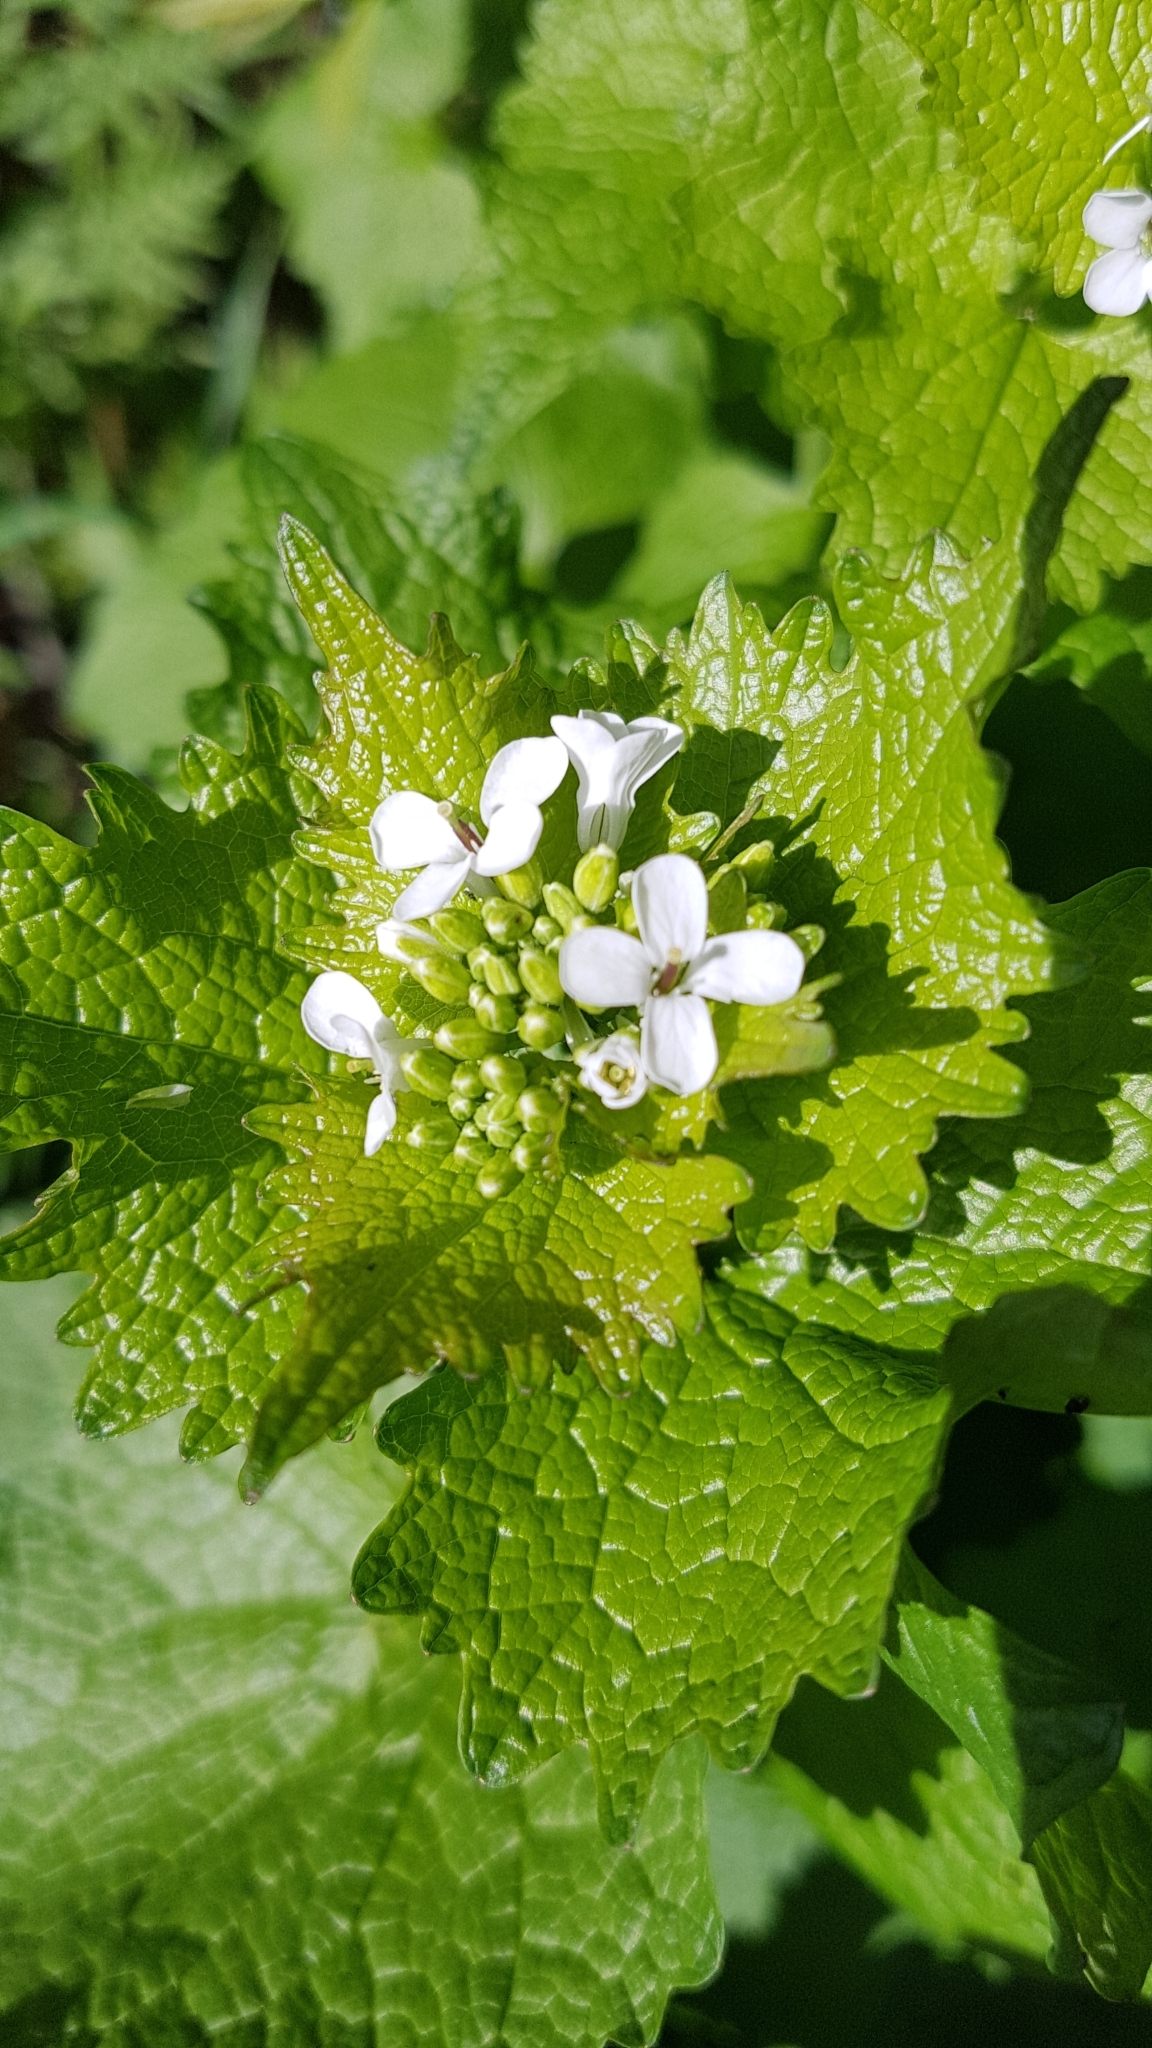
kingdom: Plantae
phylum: Tracheophyta
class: Magnoliopsida
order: Brassicales
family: Brassicaceae
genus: Alliaria
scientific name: Alliaria petiolata
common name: Garlic mustard
